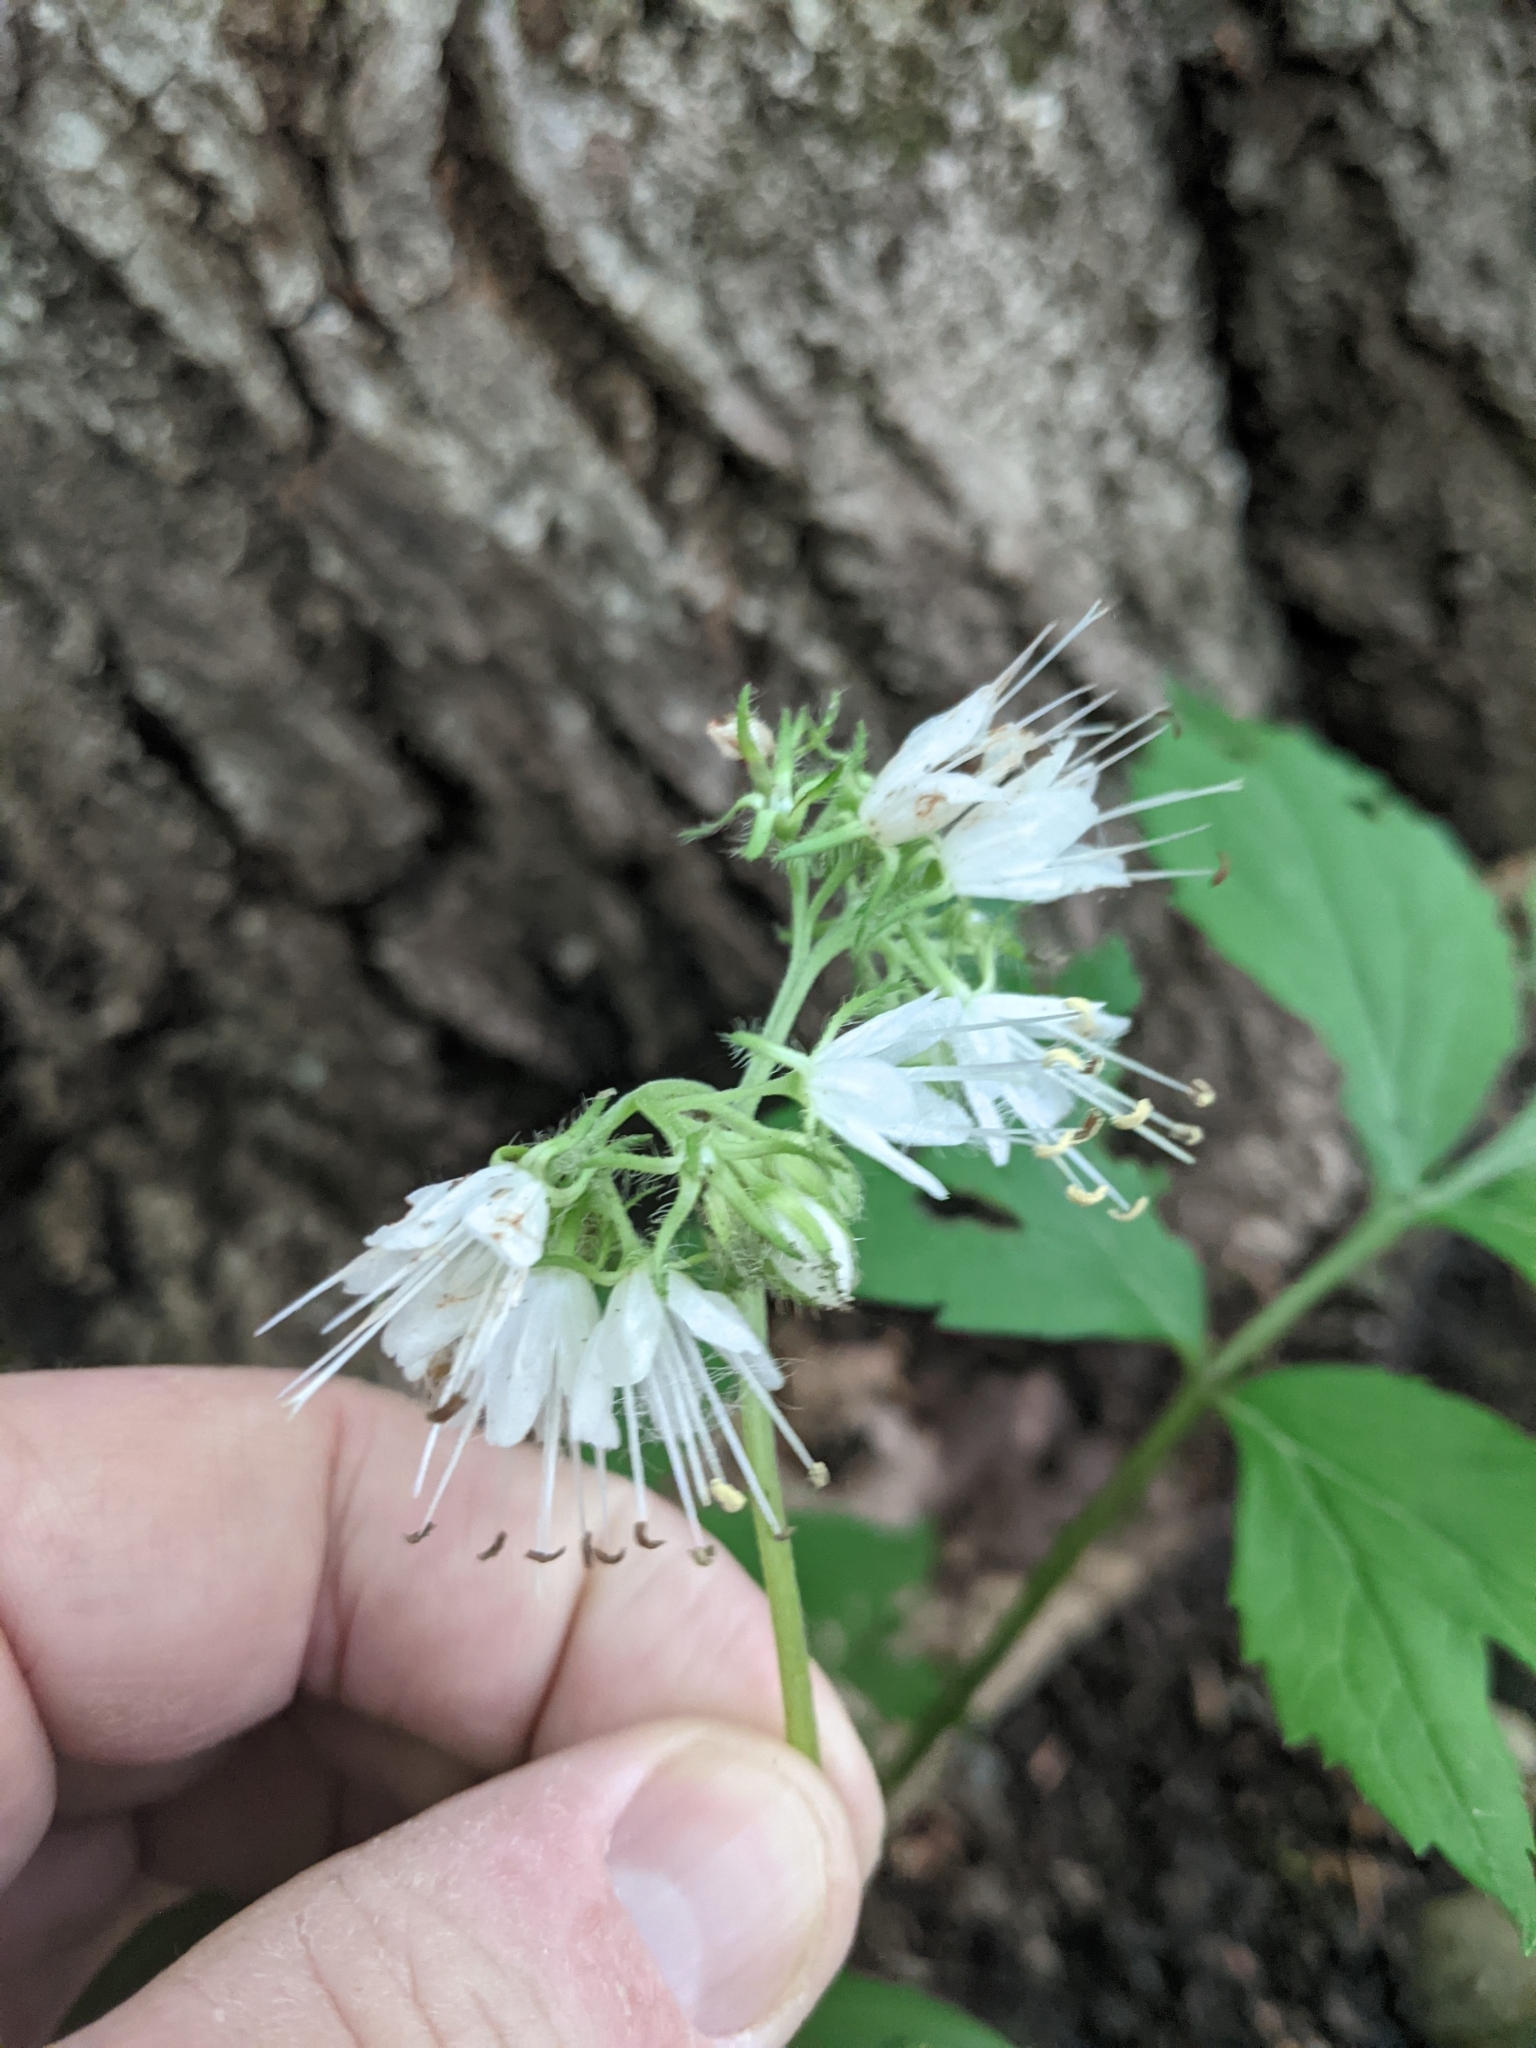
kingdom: Plantae
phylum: Tracheophyta
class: Magnoliopsida
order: Boraginales
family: Hydrophyllaceae
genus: Hydrophyllum
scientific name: Hydrophyllum virginianum
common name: Virginia waterleaf
